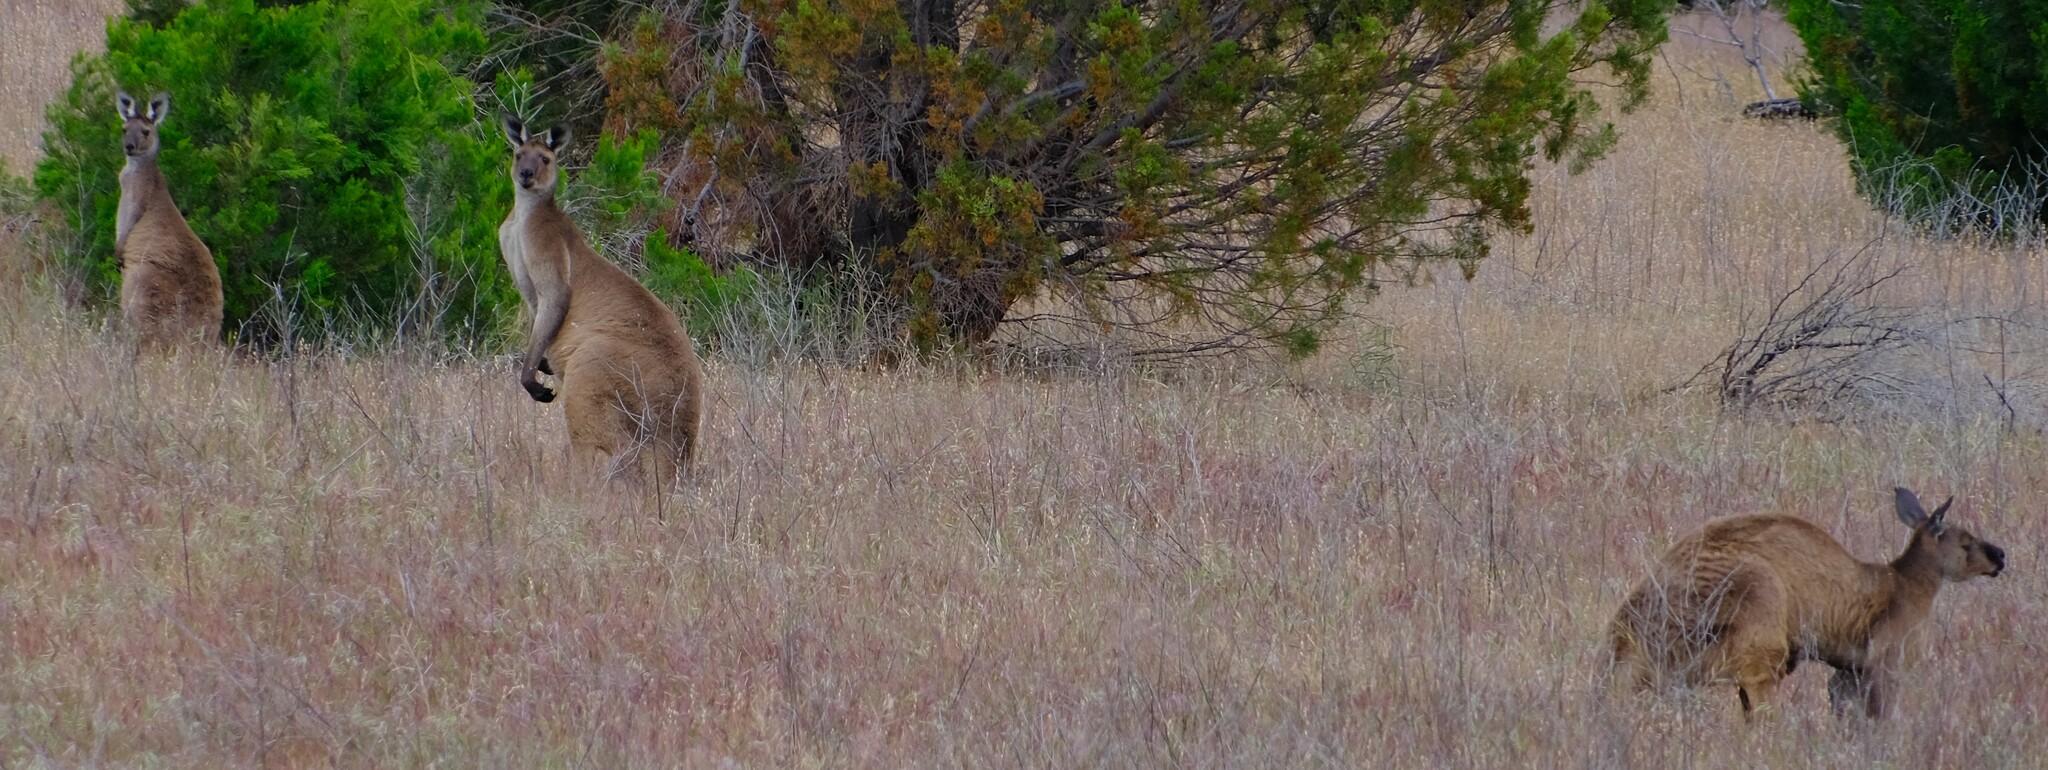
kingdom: Animalia
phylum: Chordata
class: Mammalia
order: Diprotodontia
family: Macropodidae
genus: Macropus
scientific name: Macropus fuliginosus
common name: Western grey kangaroo
